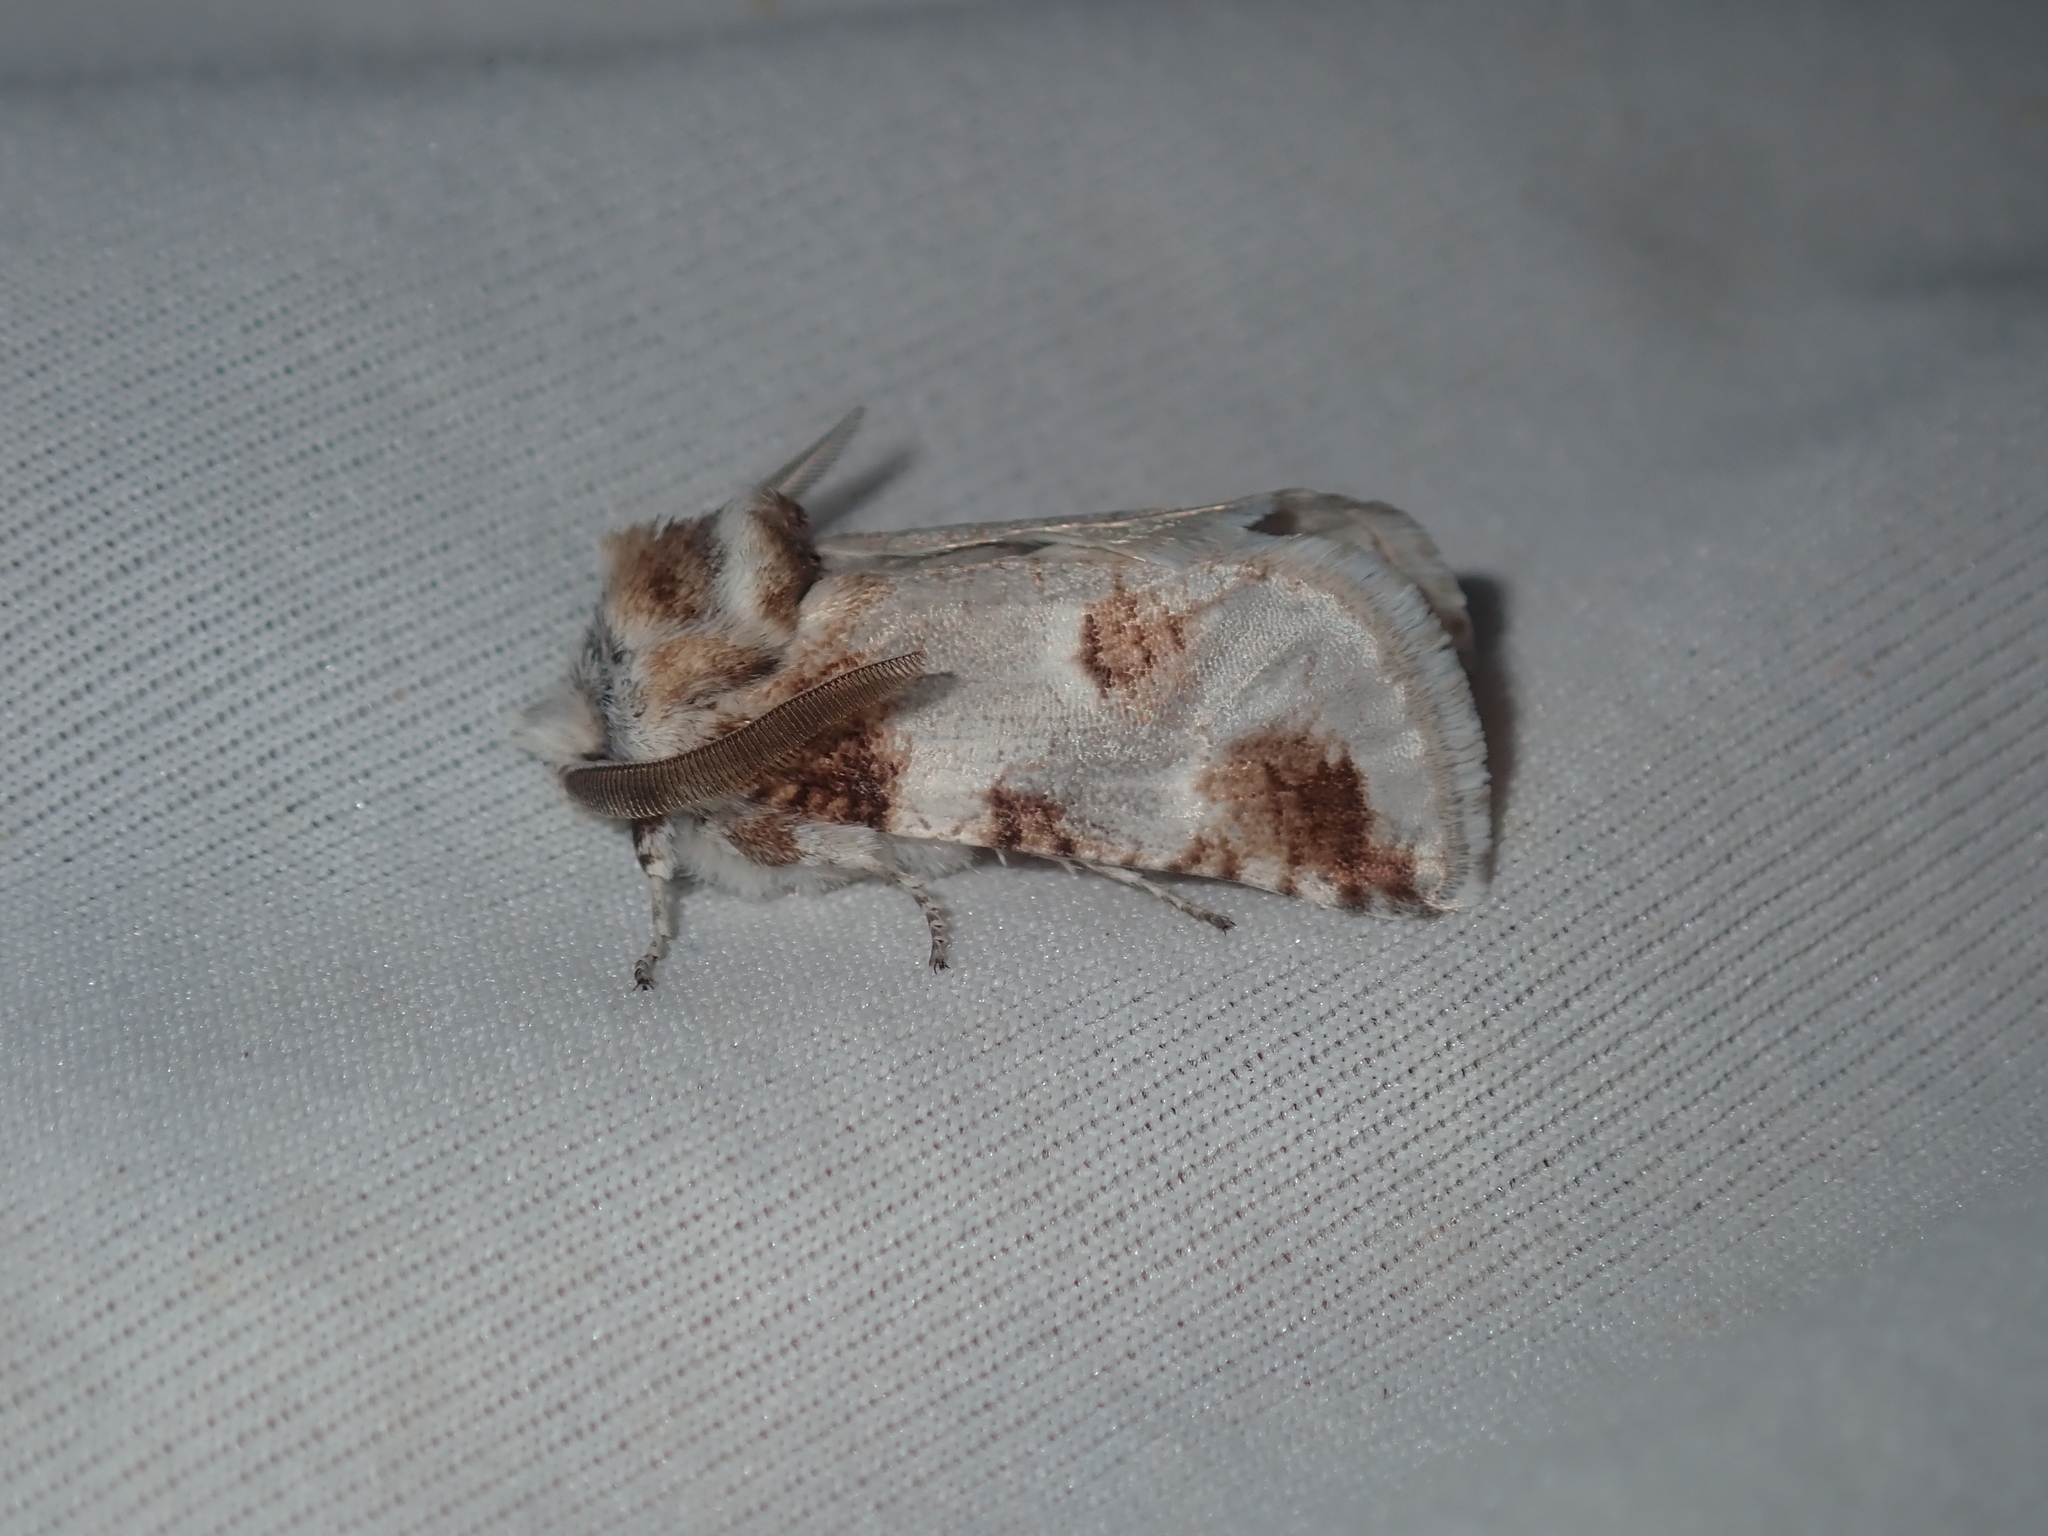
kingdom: Animalia
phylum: Arthropoda
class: Insecta
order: Lepidoptera
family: Cossidae
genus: Culama
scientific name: Culama dasythrix
